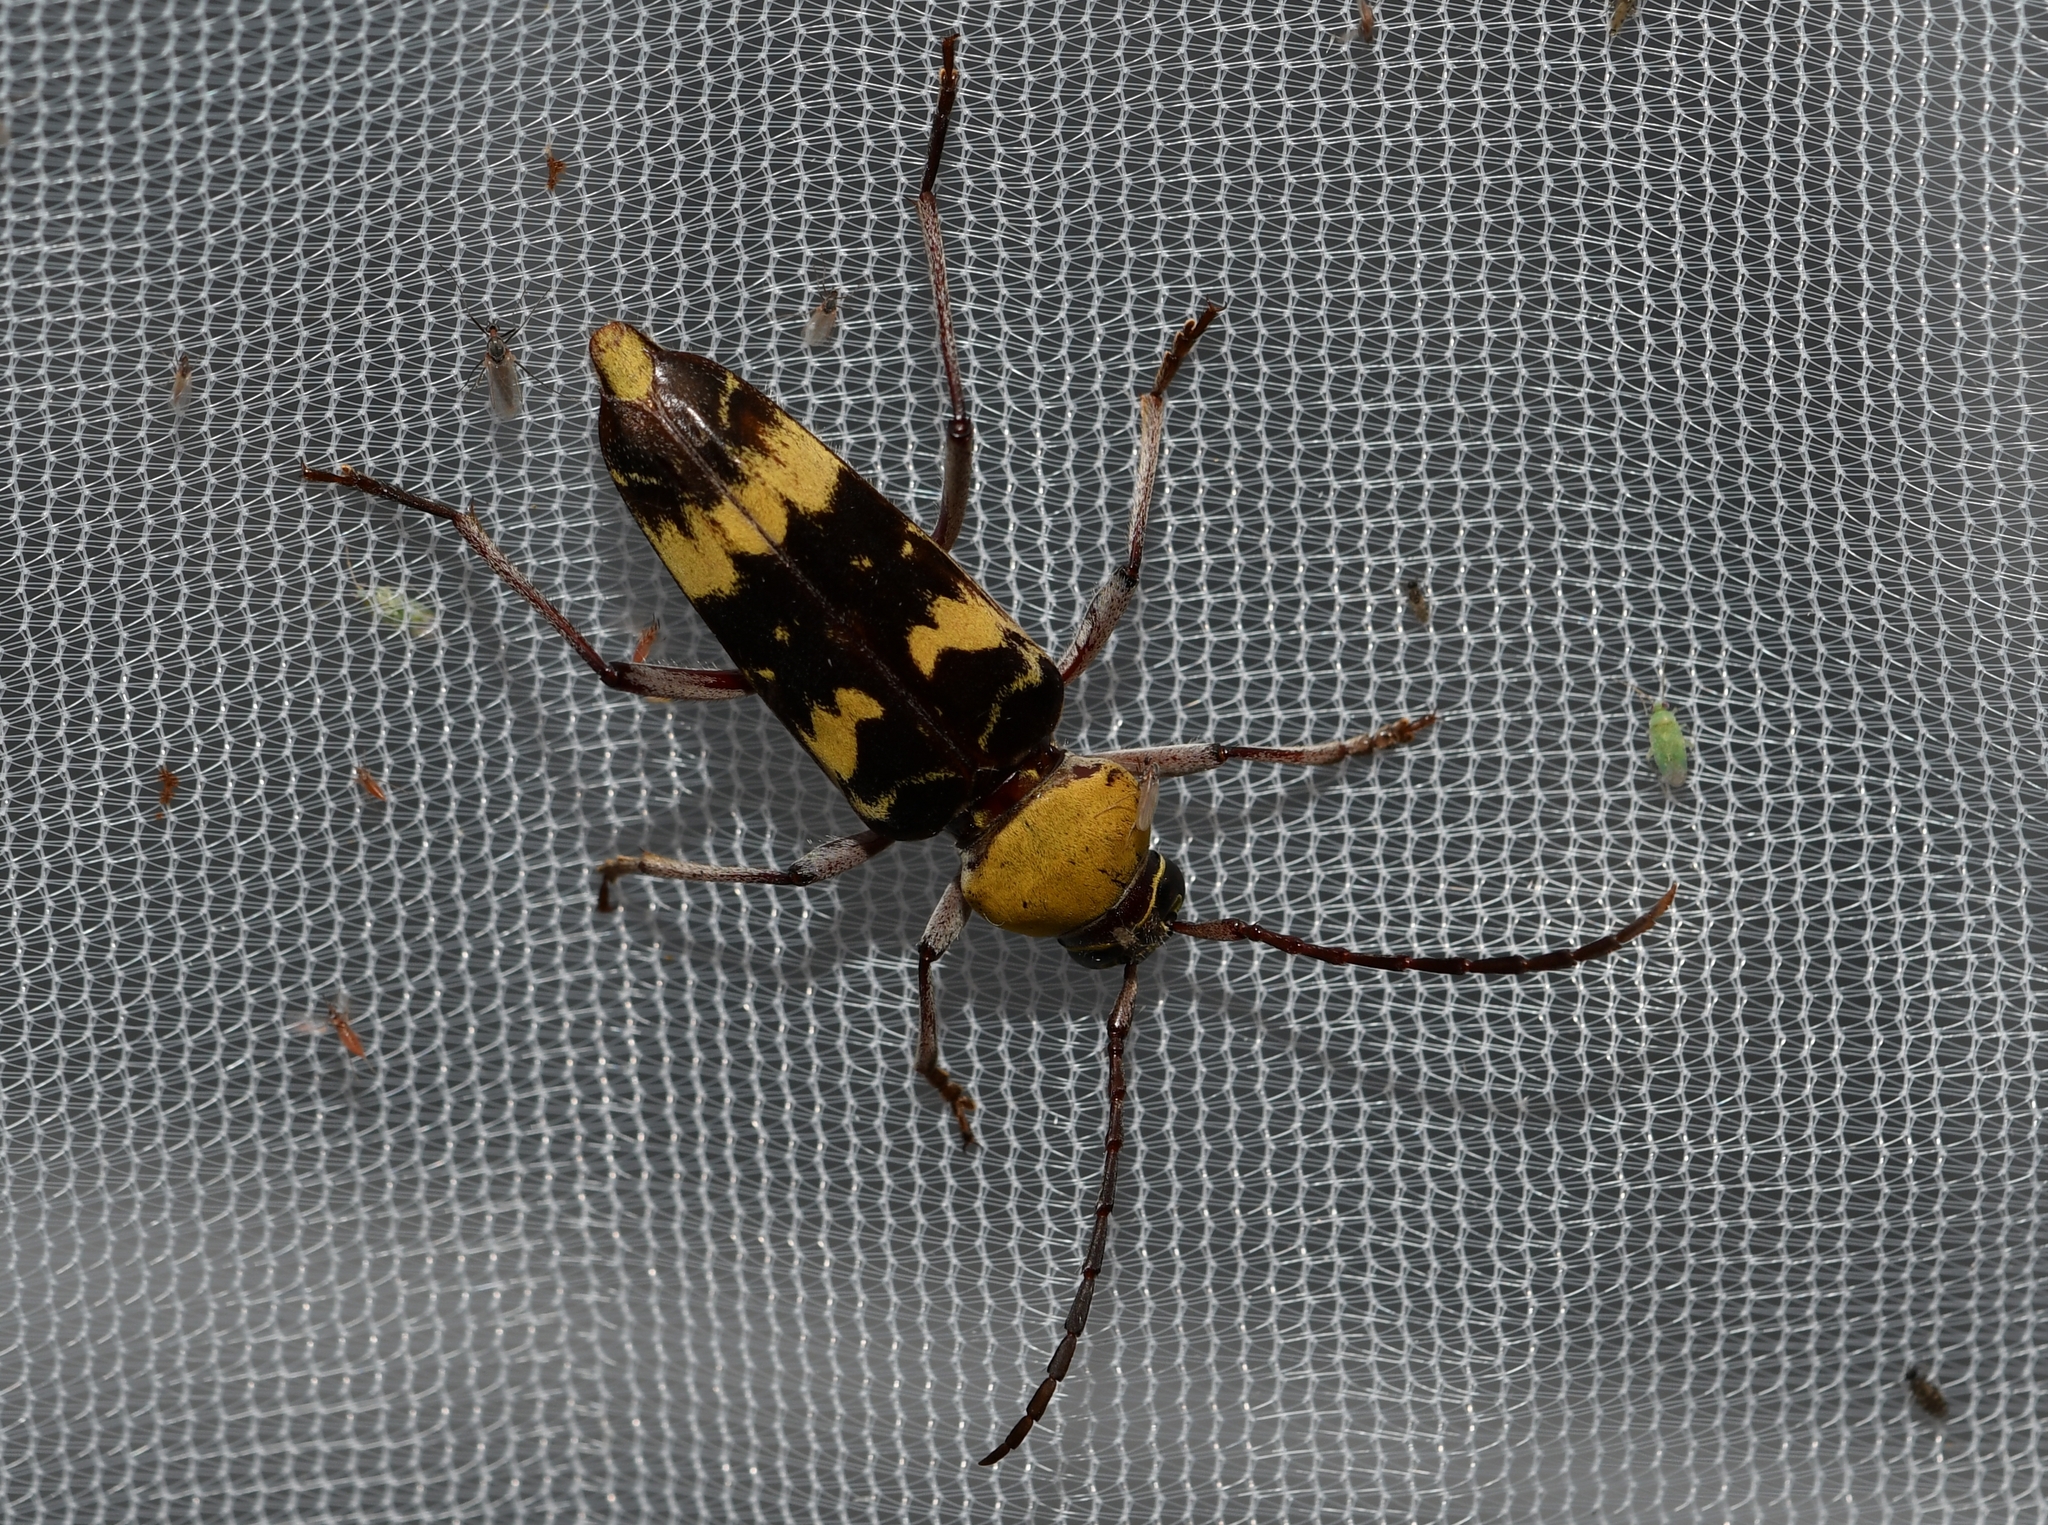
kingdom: Animalia
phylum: Arthropoda
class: Insecta
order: Coleoptera
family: Cerambycidae
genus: Megacyllene
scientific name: Megacyllene antennata
